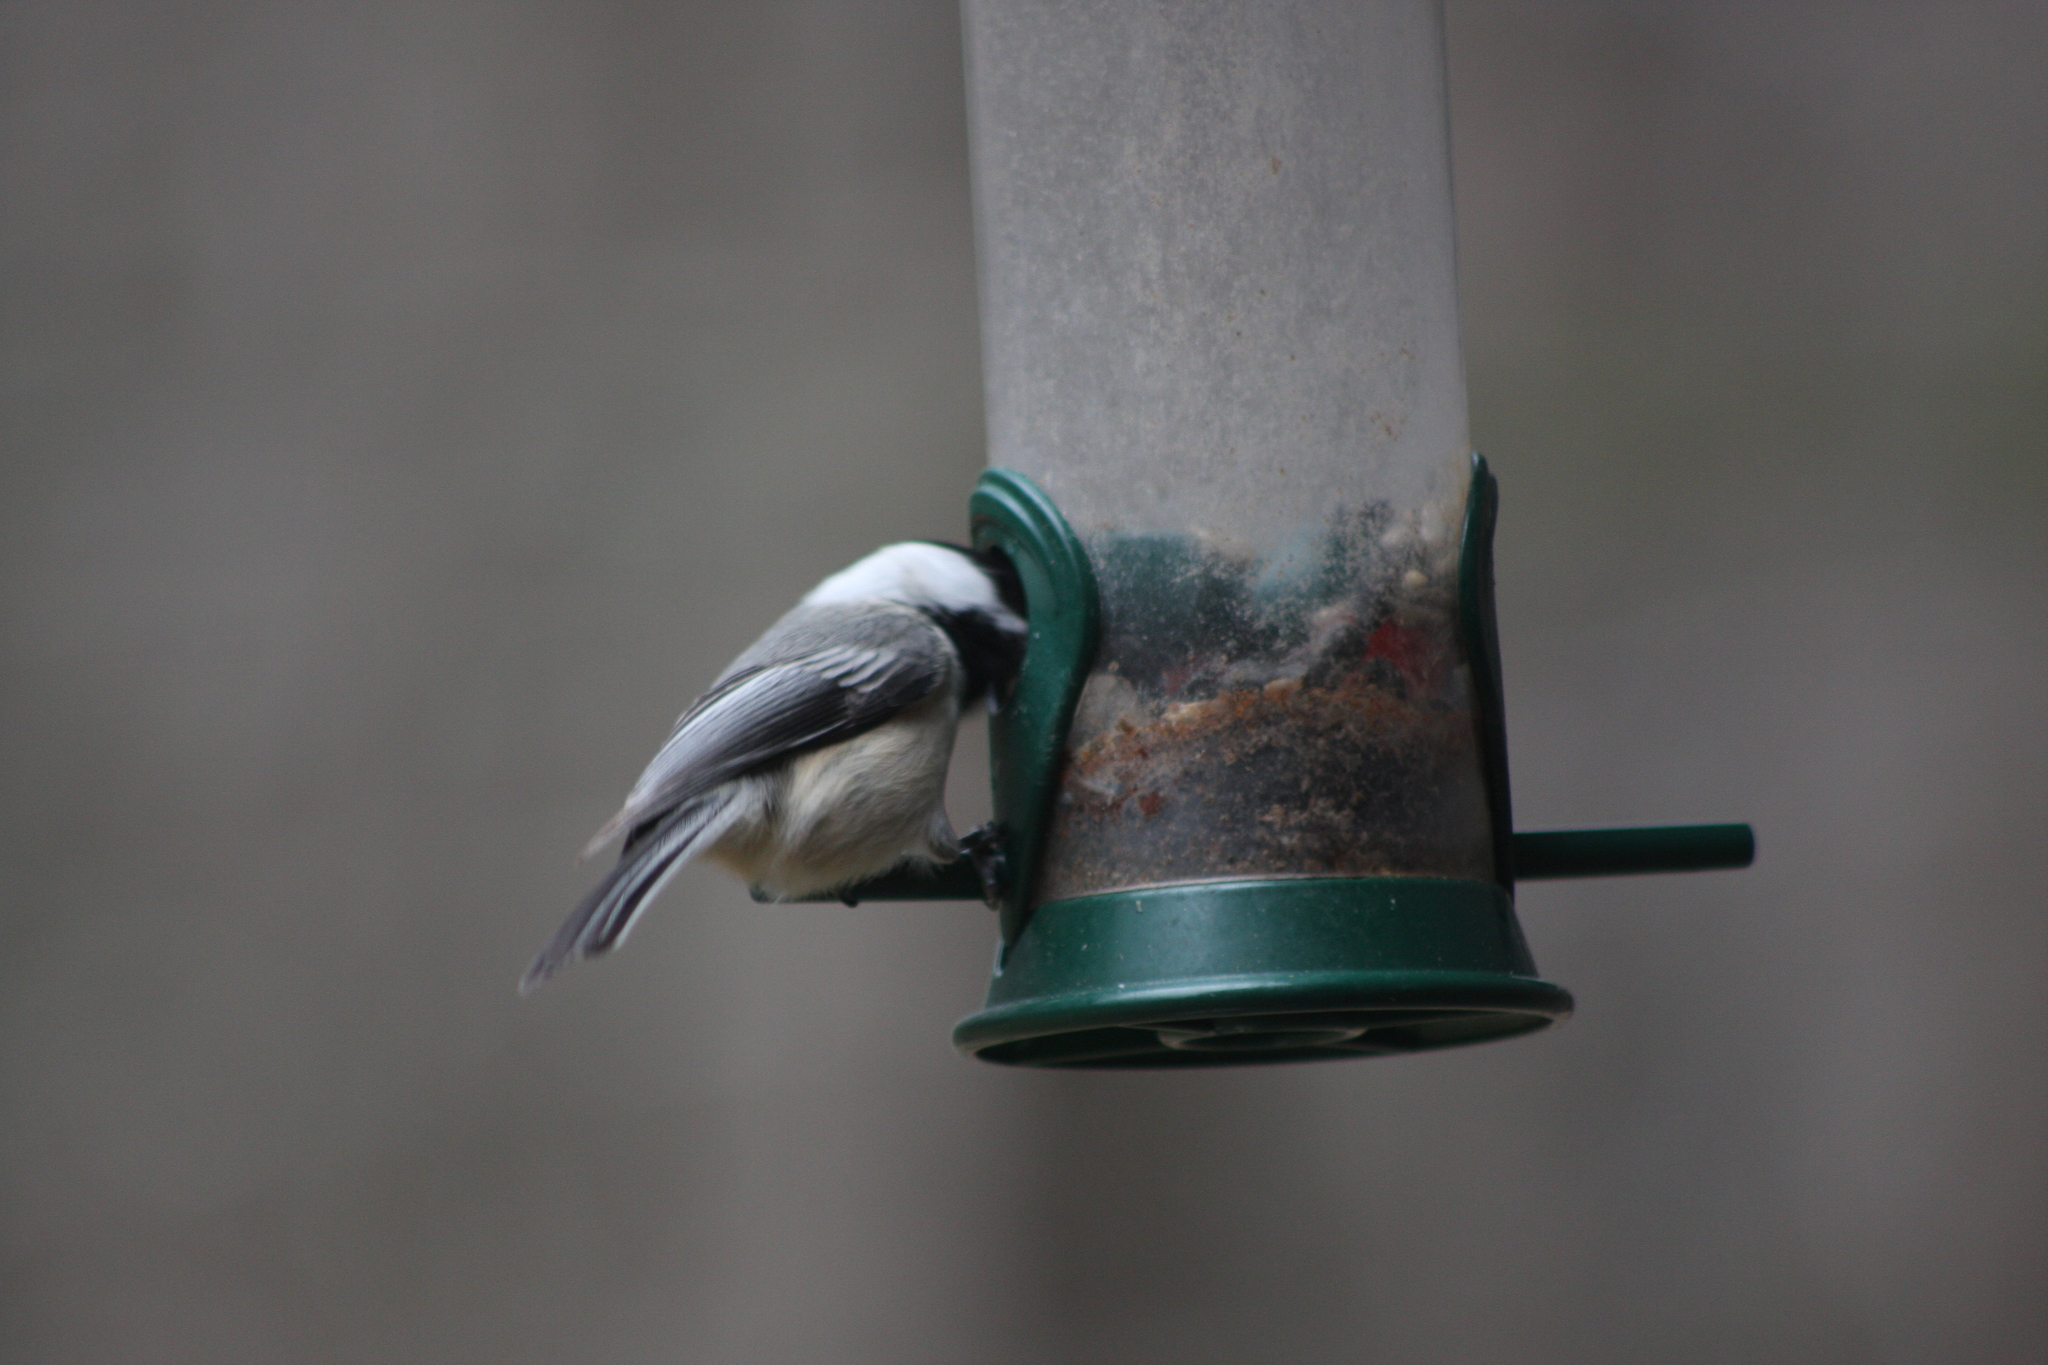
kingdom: Animalia
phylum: Chordata
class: Aves
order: Passeriformes
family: Paridae
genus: Poecile
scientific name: Poecile atricapillus
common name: Black-capped chickadee
